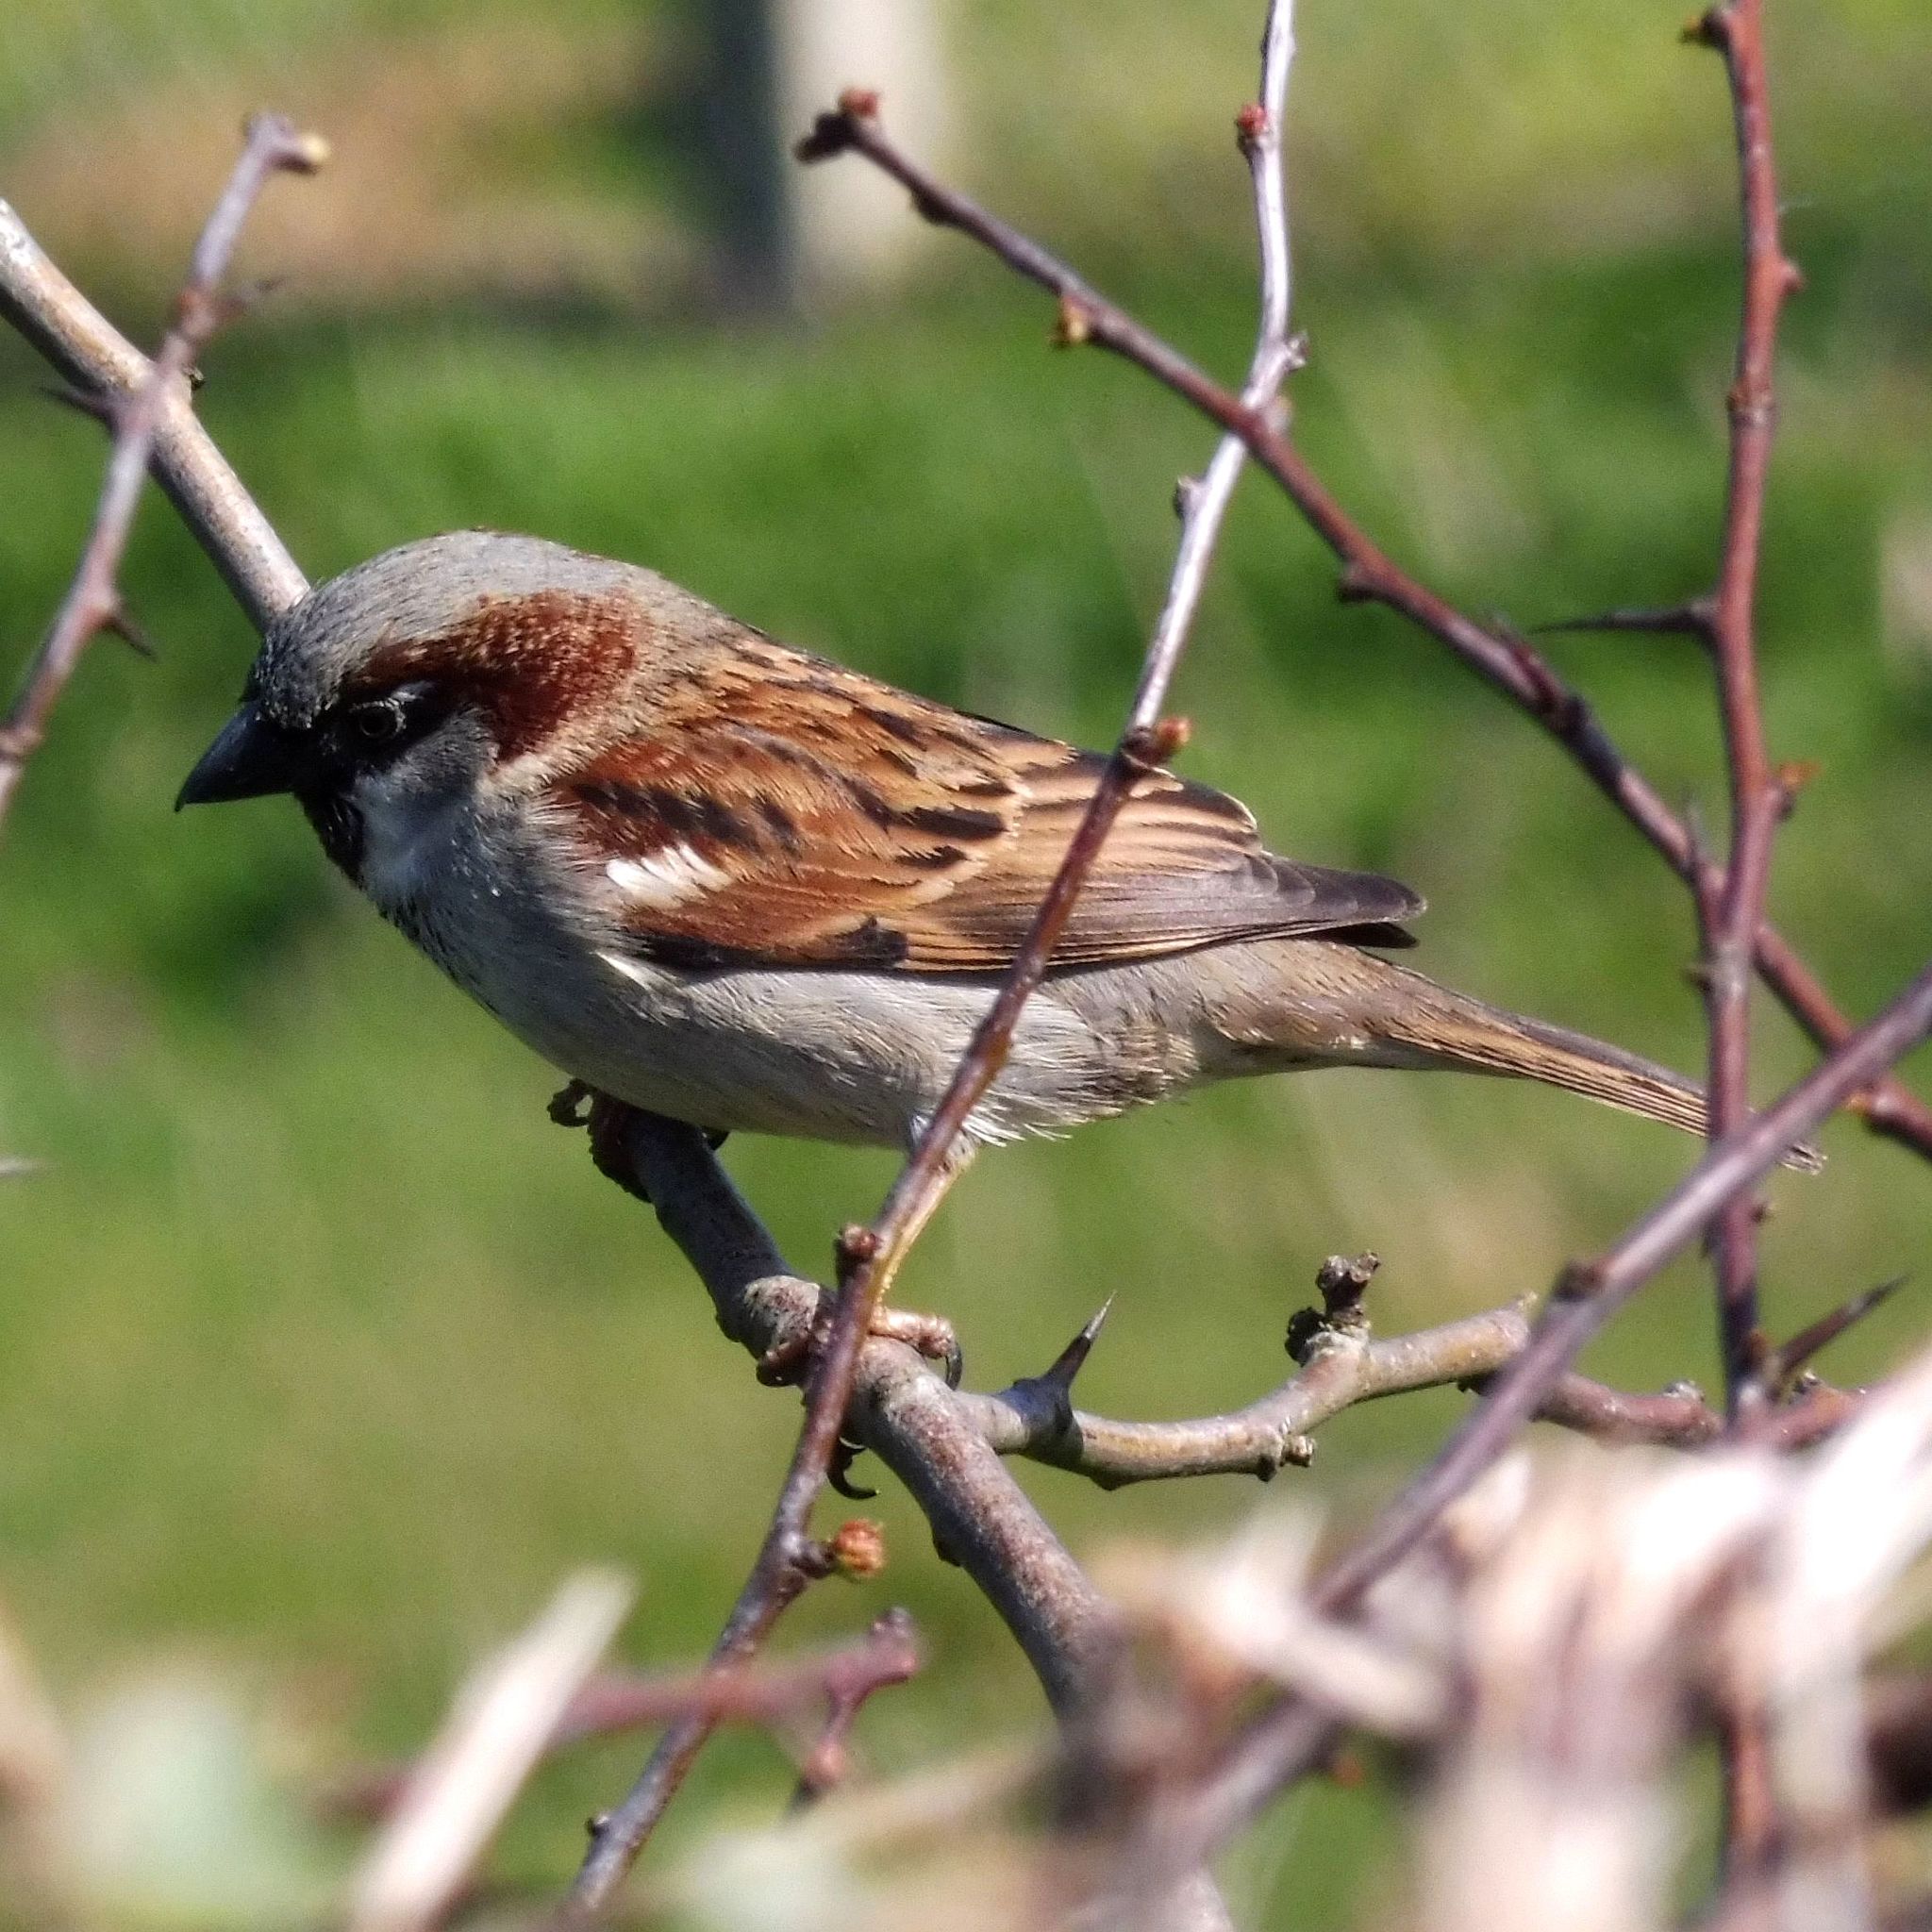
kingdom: Animalia
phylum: Chordata
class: Aves
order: Passeriformes
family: Passeridae
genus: Passer
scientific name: Passer domesticus
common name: House sparrow
